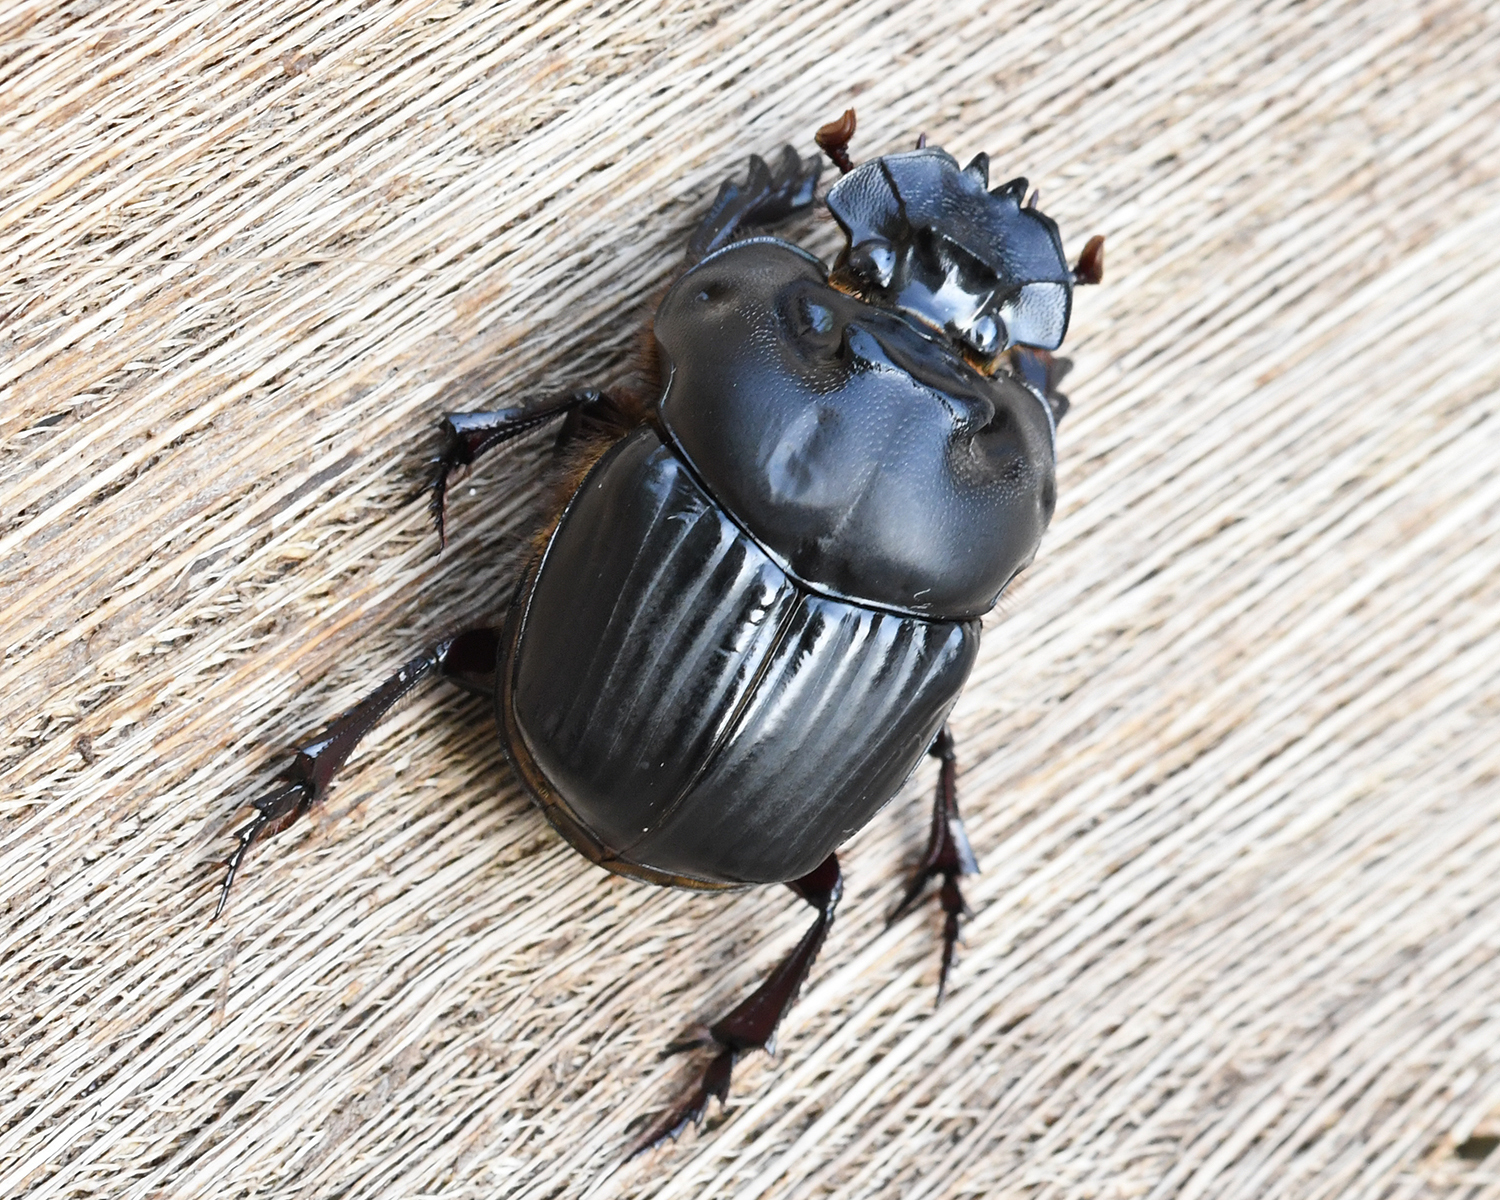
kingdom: Animalia
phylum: Arthropoda
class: Insecta
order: Coleoptera
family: Scarabaeidae
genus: Coprophanaeus
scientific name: Coprophanaeus dardanus
